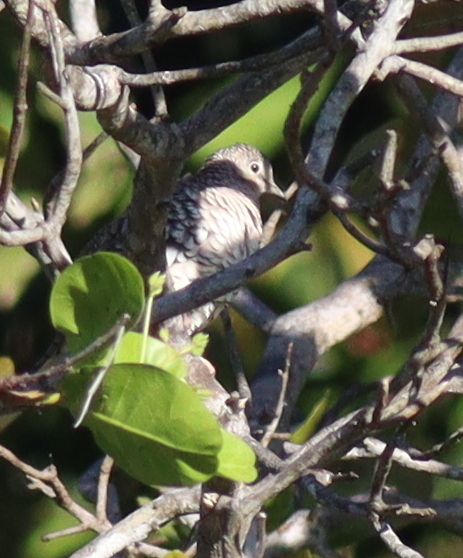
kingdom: Animalia
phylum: Chordata
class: Aves
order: Columbiformes
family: Columbidae
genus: Columbina
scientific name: Columbina squammata
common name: Scaled dove
